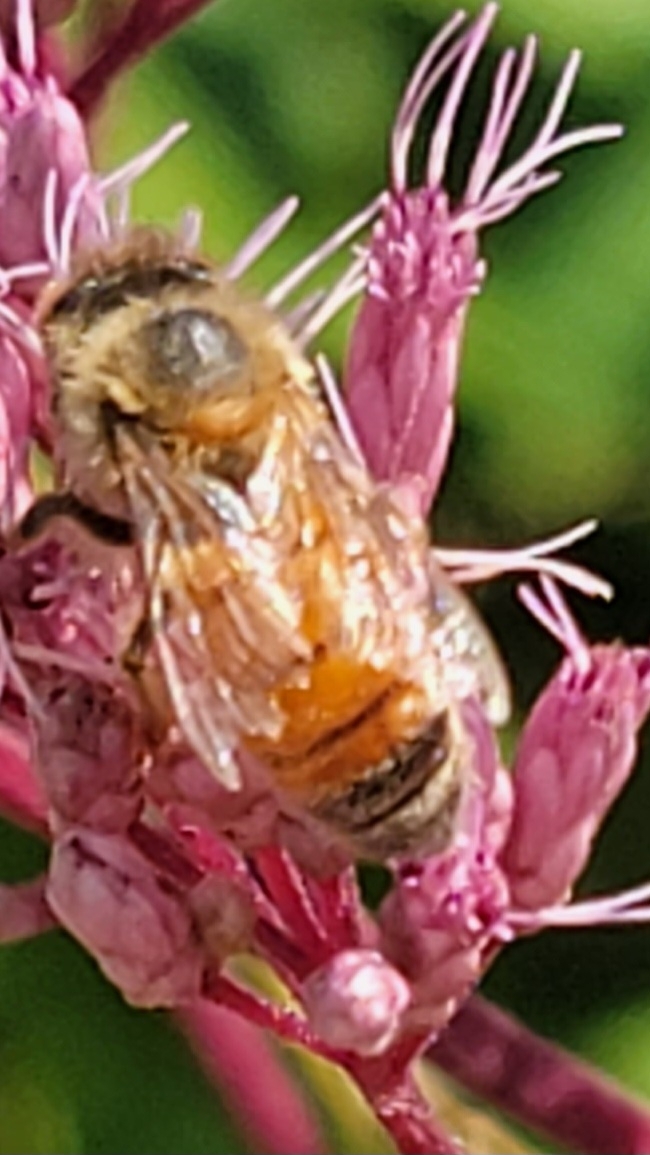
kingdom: Animalia
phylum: Arthropoda
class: Insecta
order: Hymenoptera
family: Apidae
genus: Apis
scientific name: Apis mellifera
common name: Honey bee
